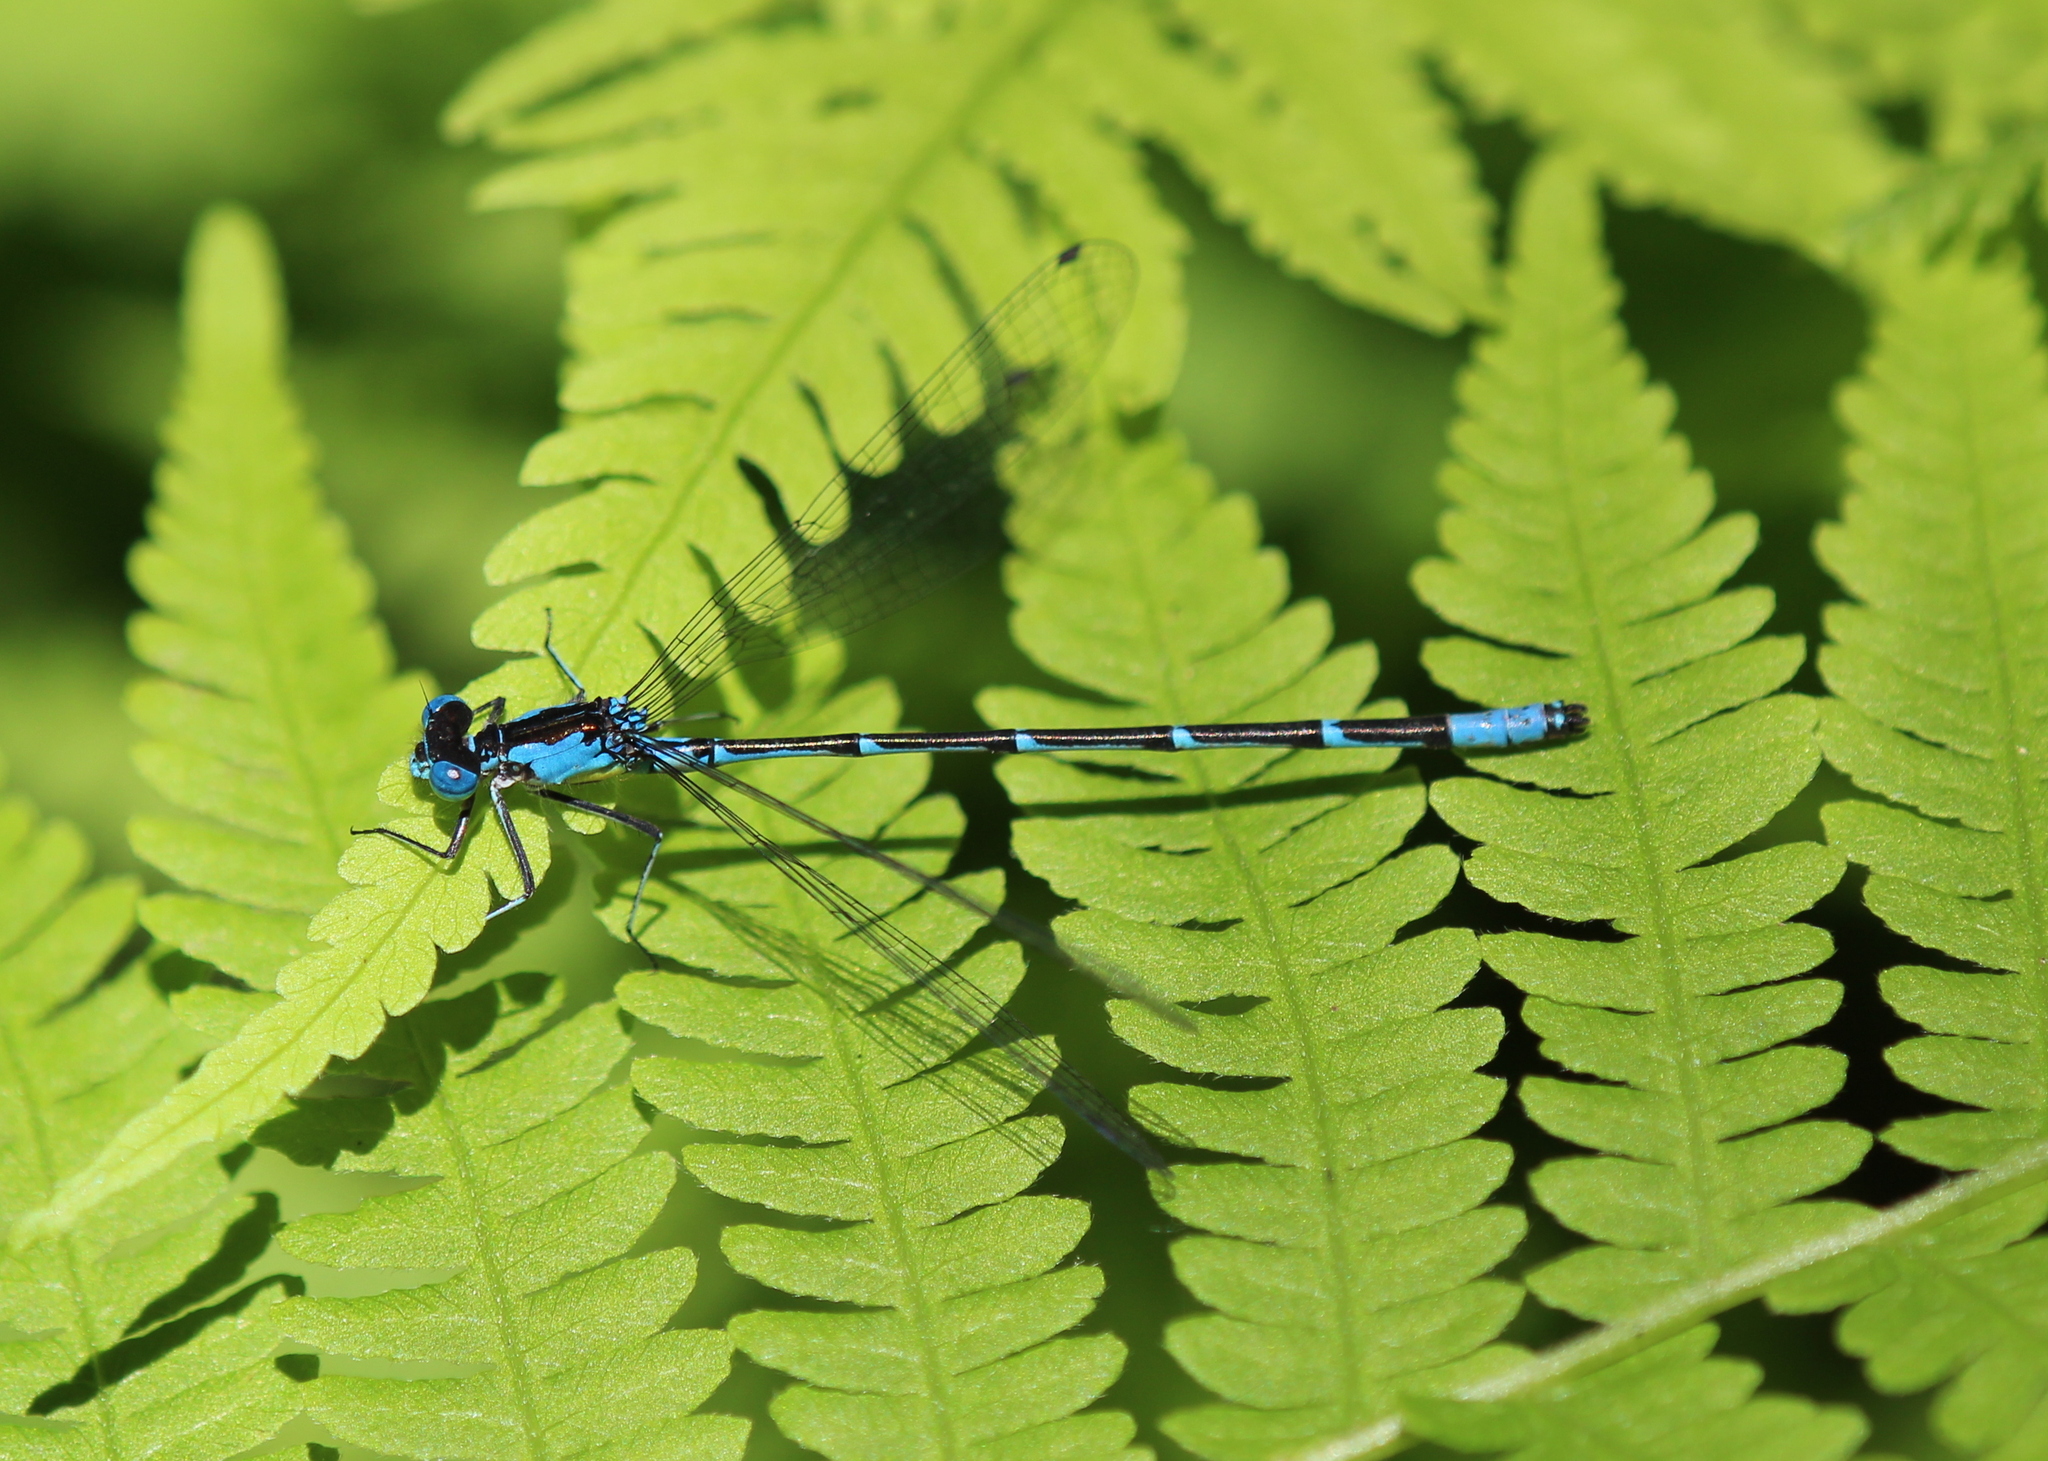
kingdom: Animalia
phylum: Arthropoda
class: Insecta
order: Odonata
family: Coenagrionidae
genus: Chromagrion
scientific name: Chromagrion conditum
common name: Aurora damsel
